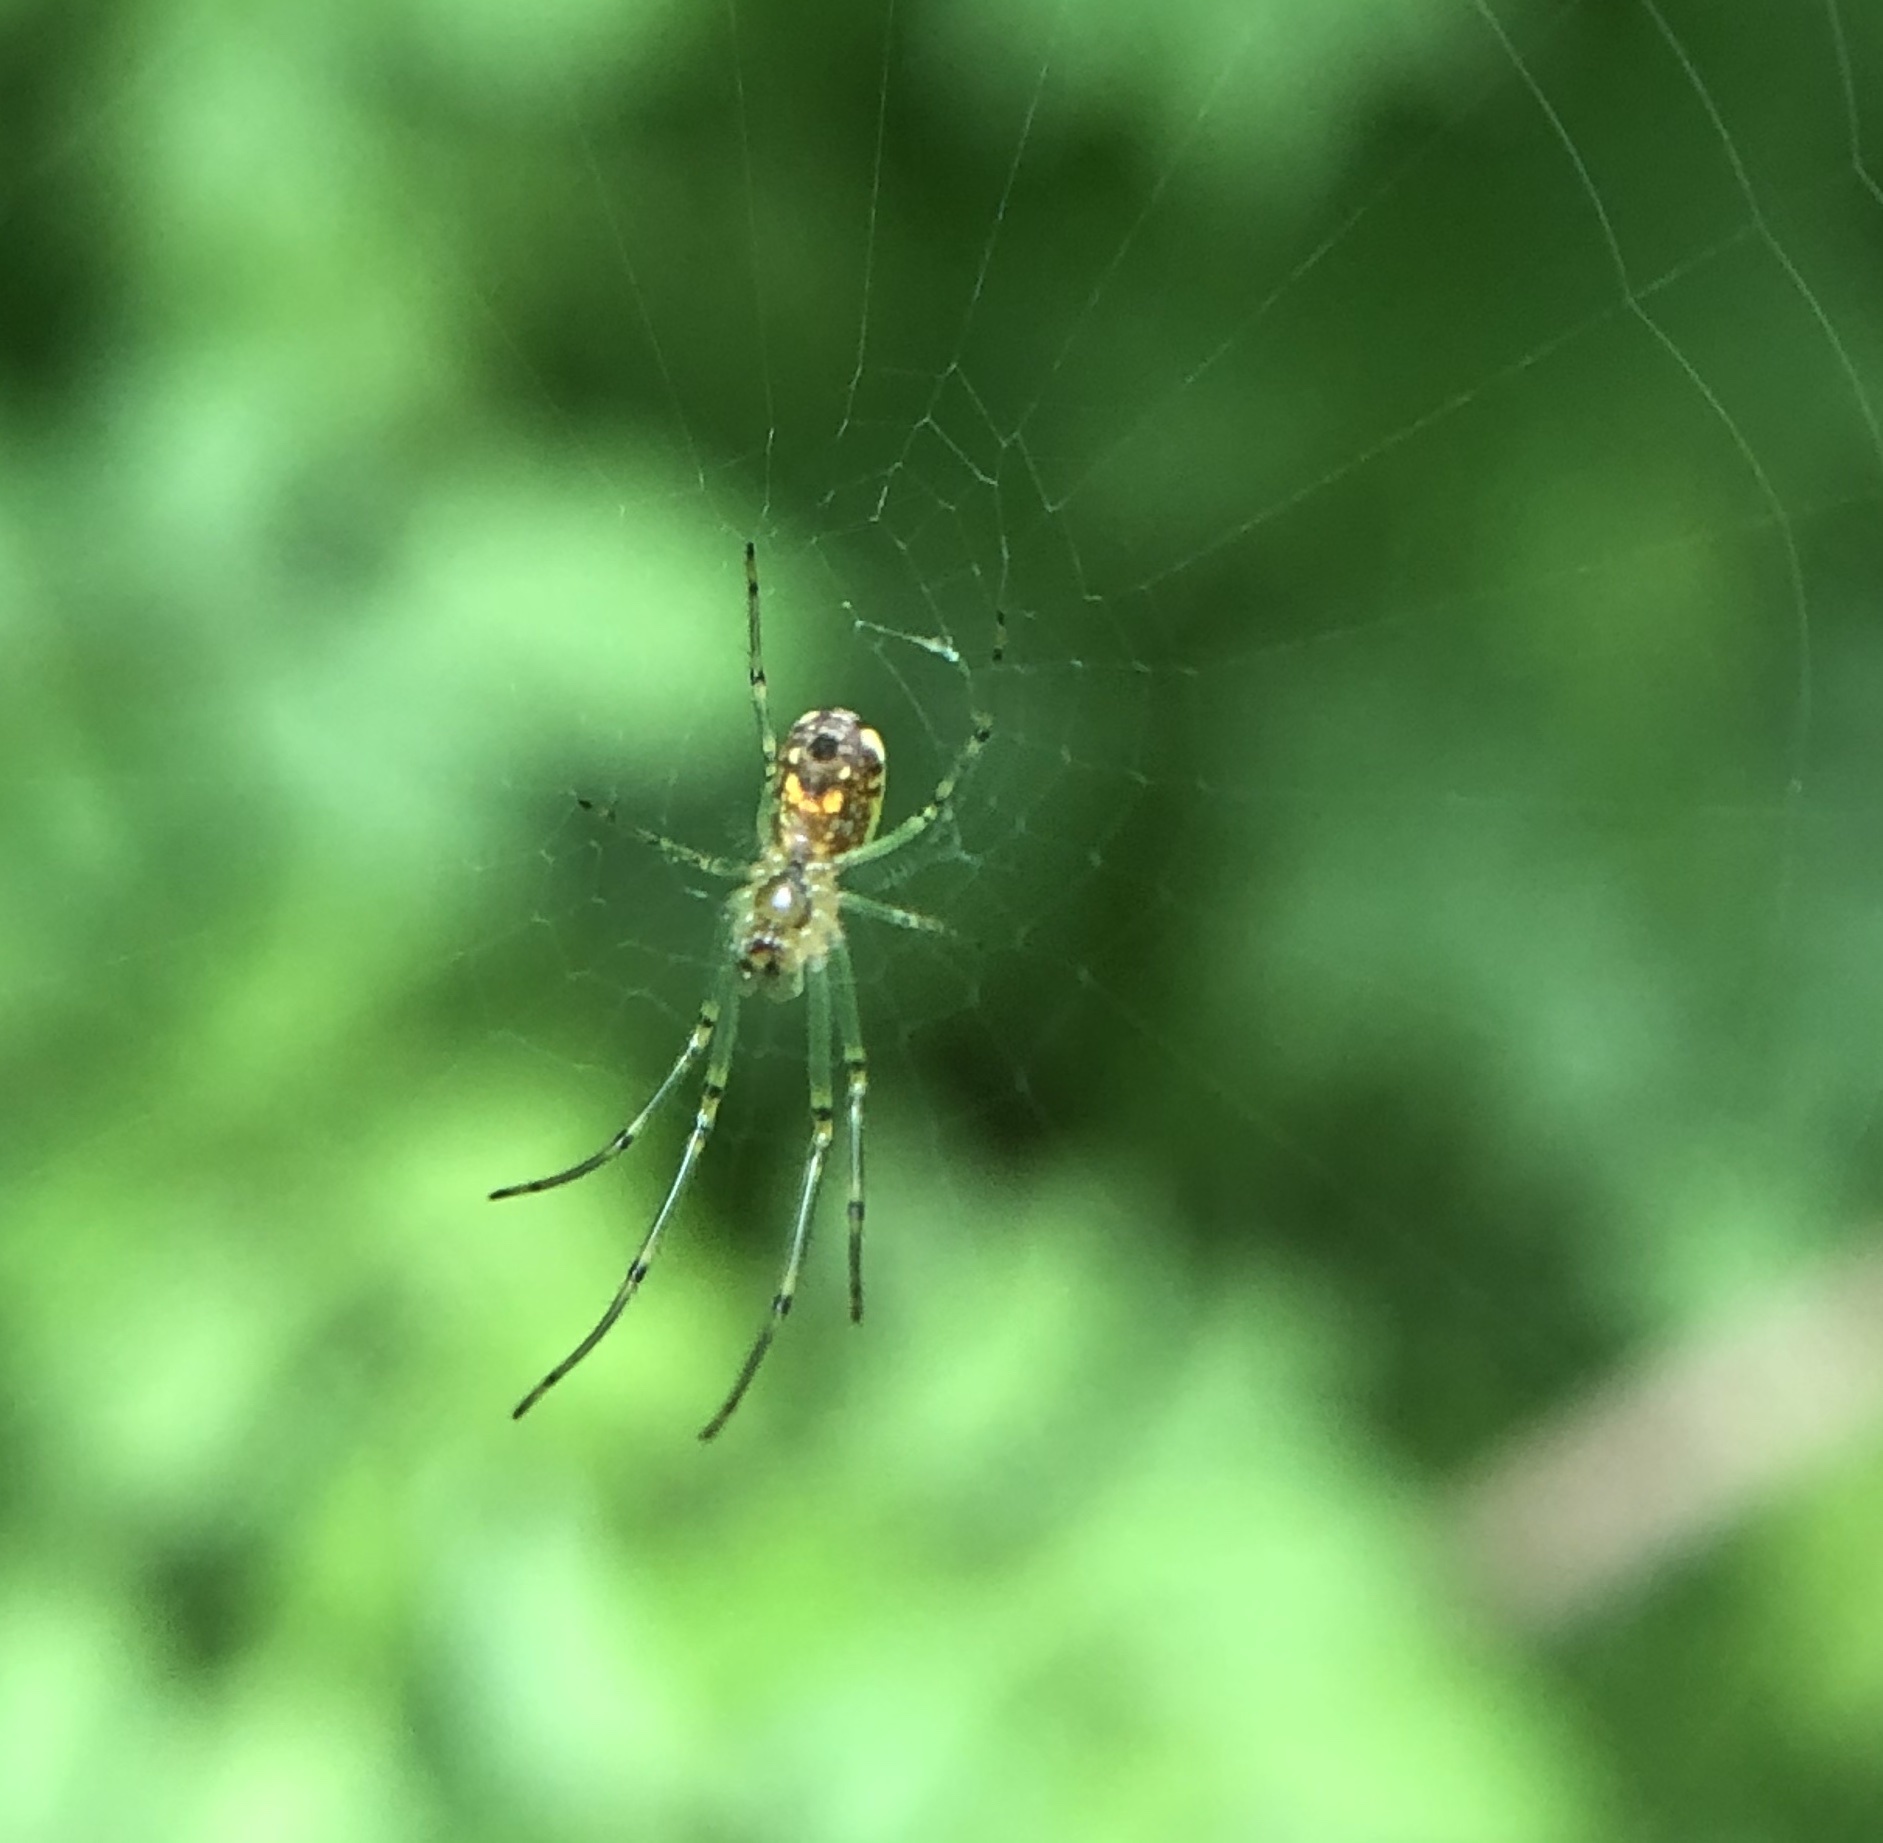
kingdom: Animalia
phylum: Arthropoda
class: Arachnida
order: Araneae
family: Tetragnathidae
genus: Leucauge
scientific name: Leucauge venusta
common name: Longjawed orb weavers
